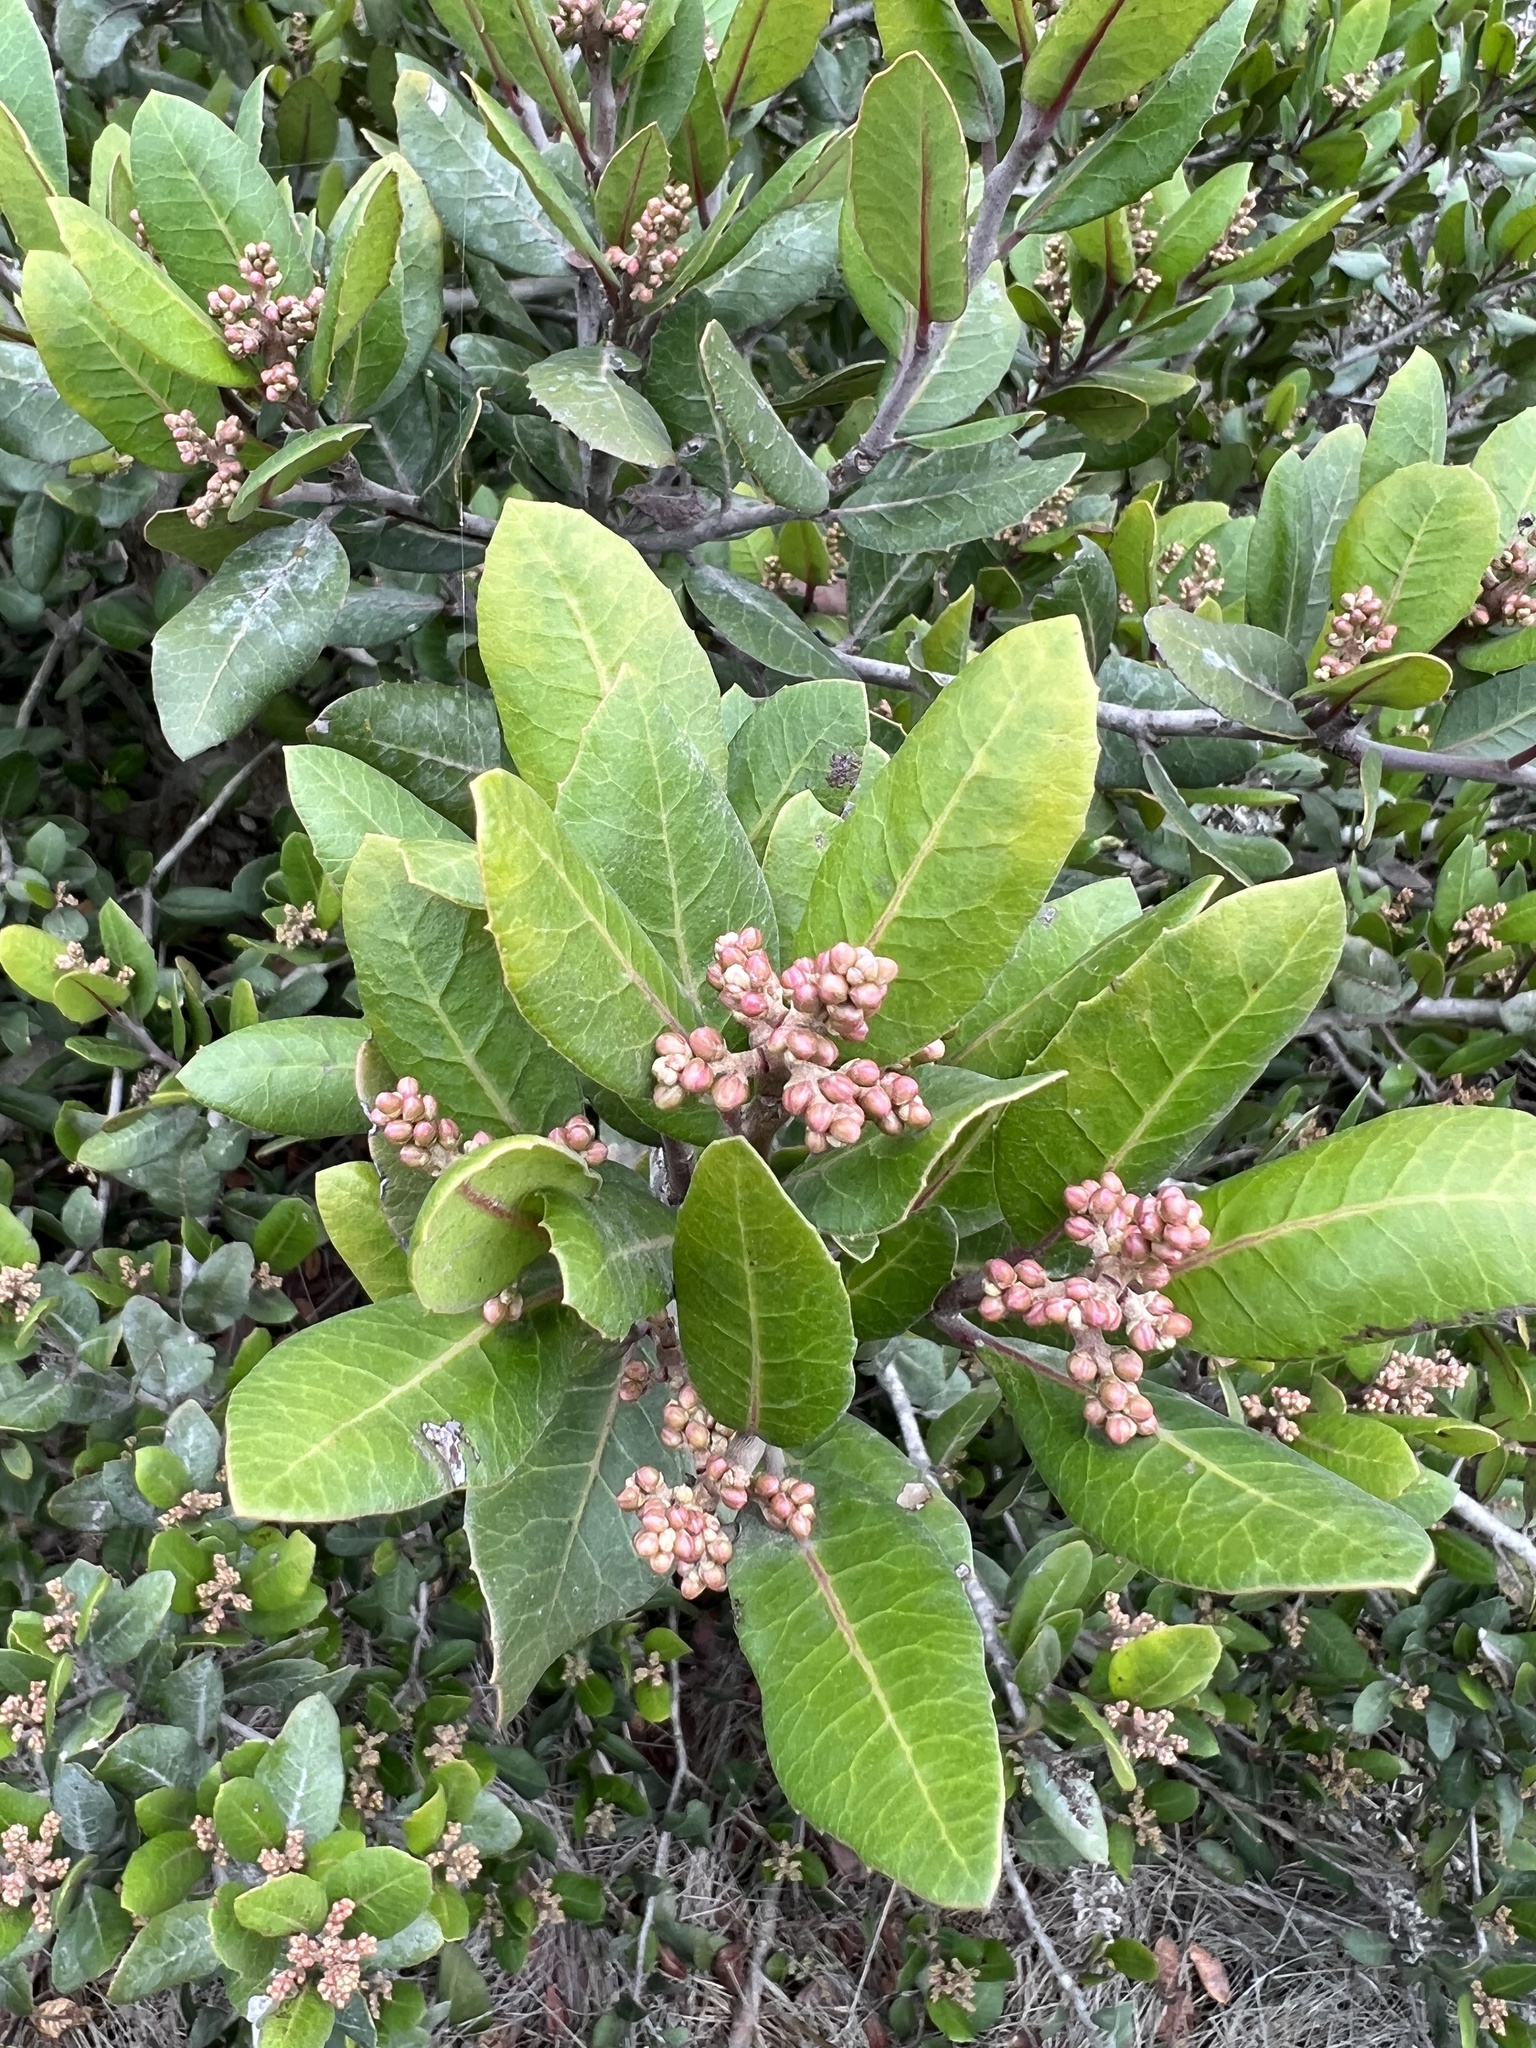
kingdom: Plantae
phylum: Tracheophyta
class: Magnoliopsida
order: Sapindales
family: Anacardiaceae
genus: Rhus
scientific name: Rhus integrifolia
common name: Lemonade sumac
